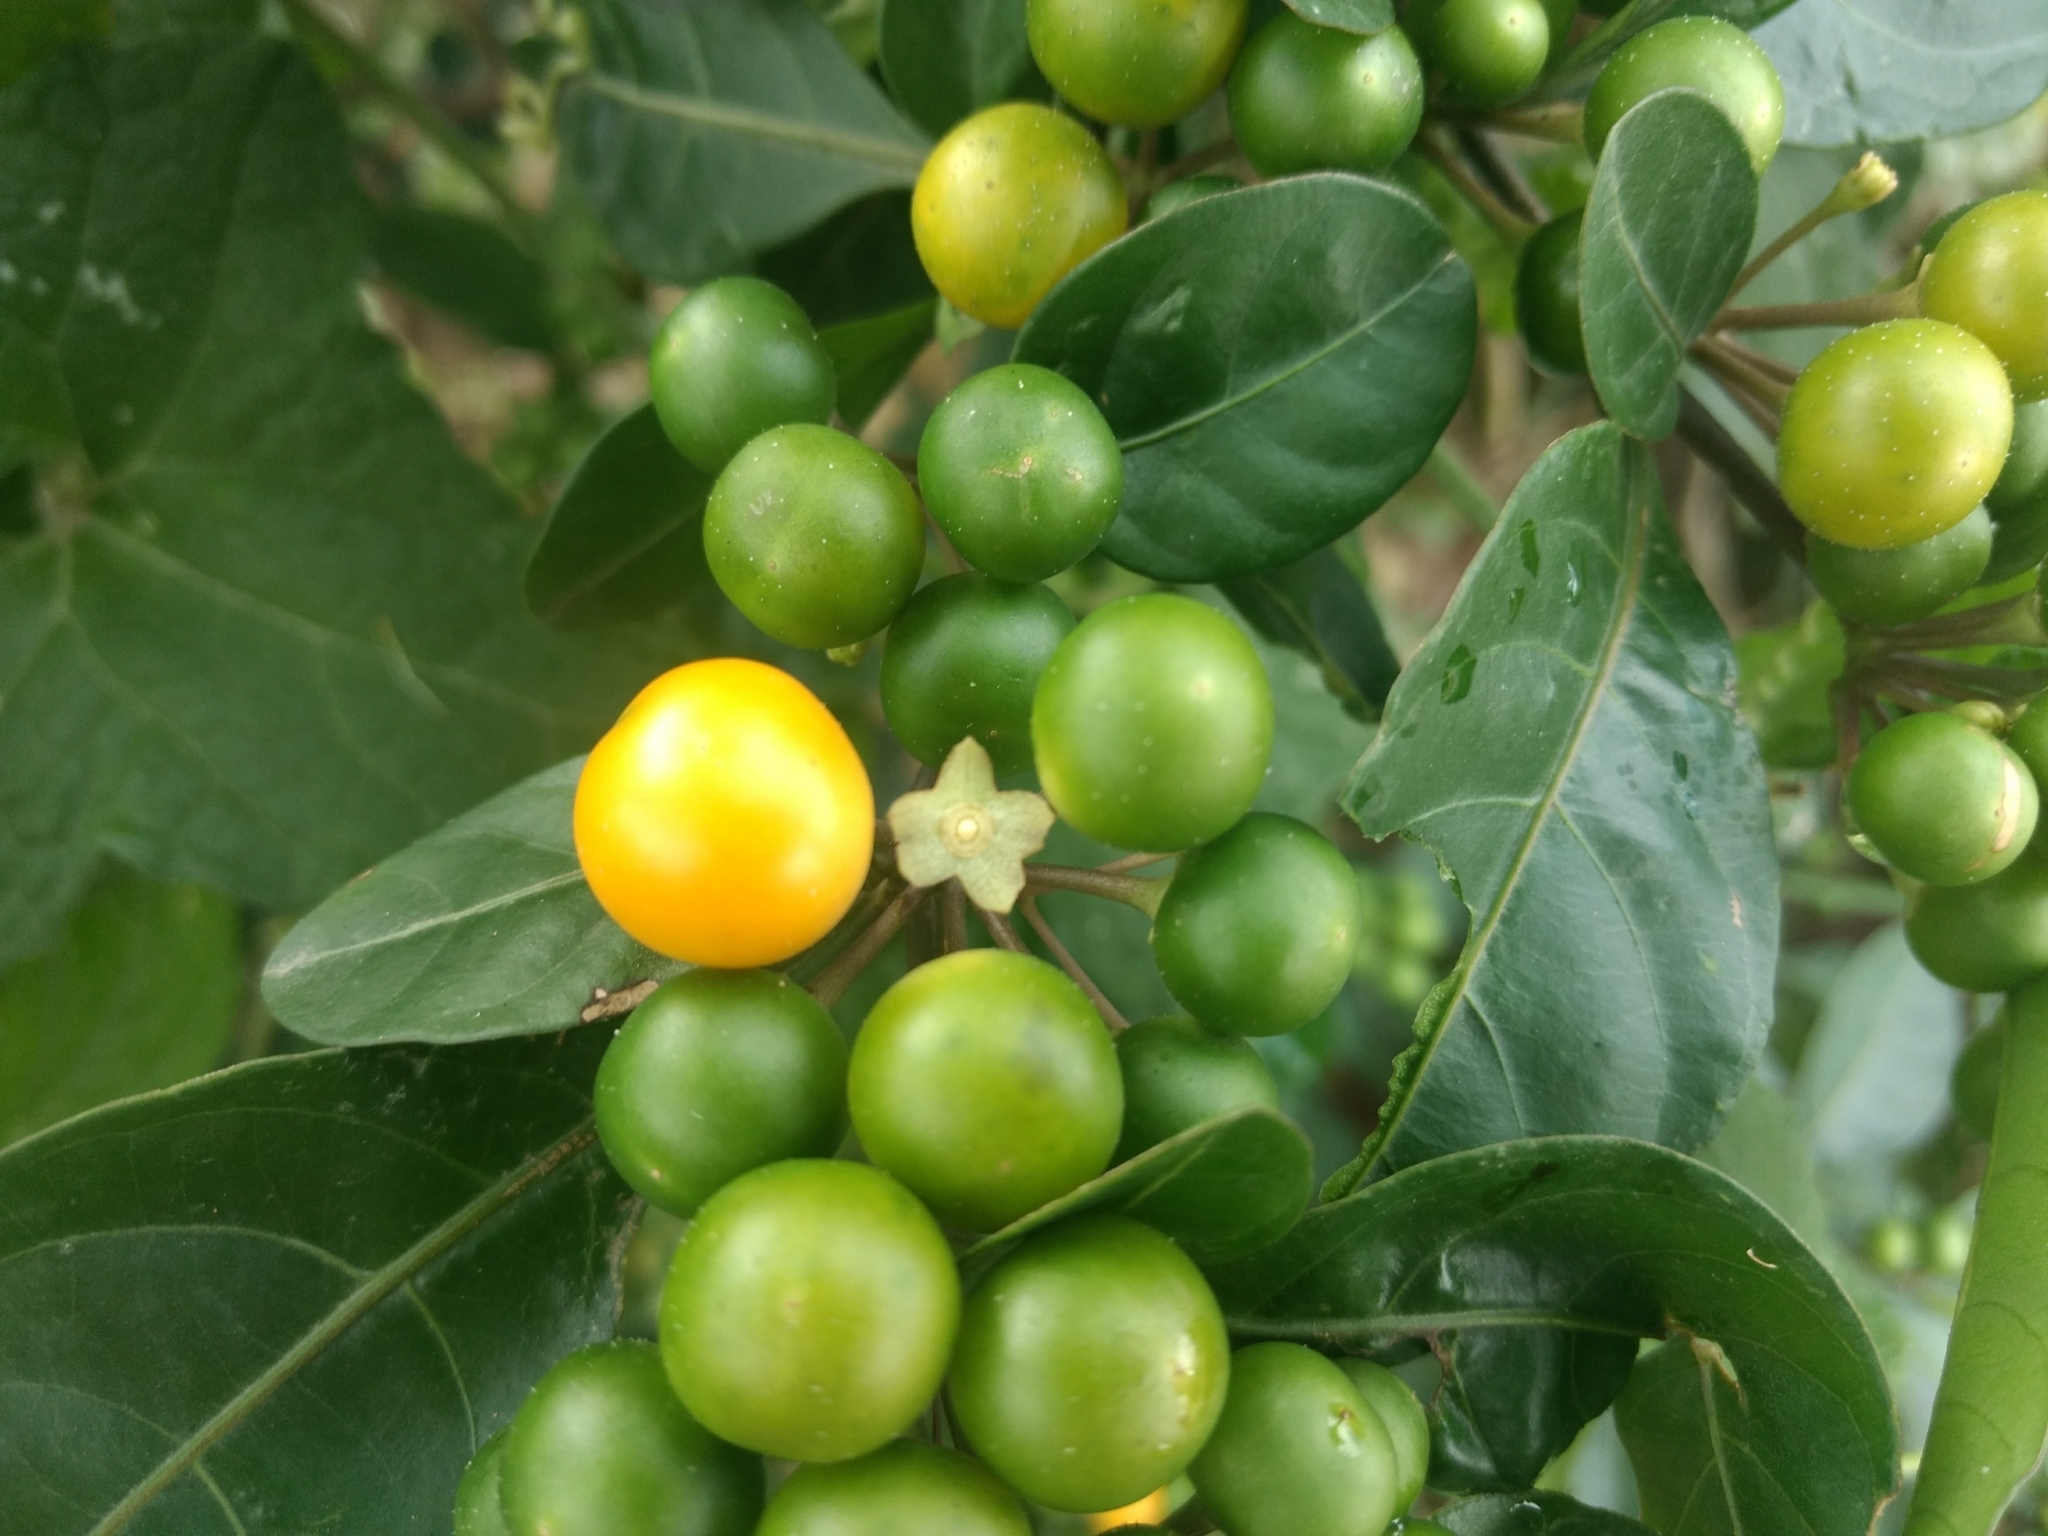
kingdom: Plantae
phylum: Tracheophyta
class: Magnoliopsida
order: Solanales
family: Solanaceae
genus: Solanum
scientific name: Solanum diphyllum
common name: Twoleaf nightshade
